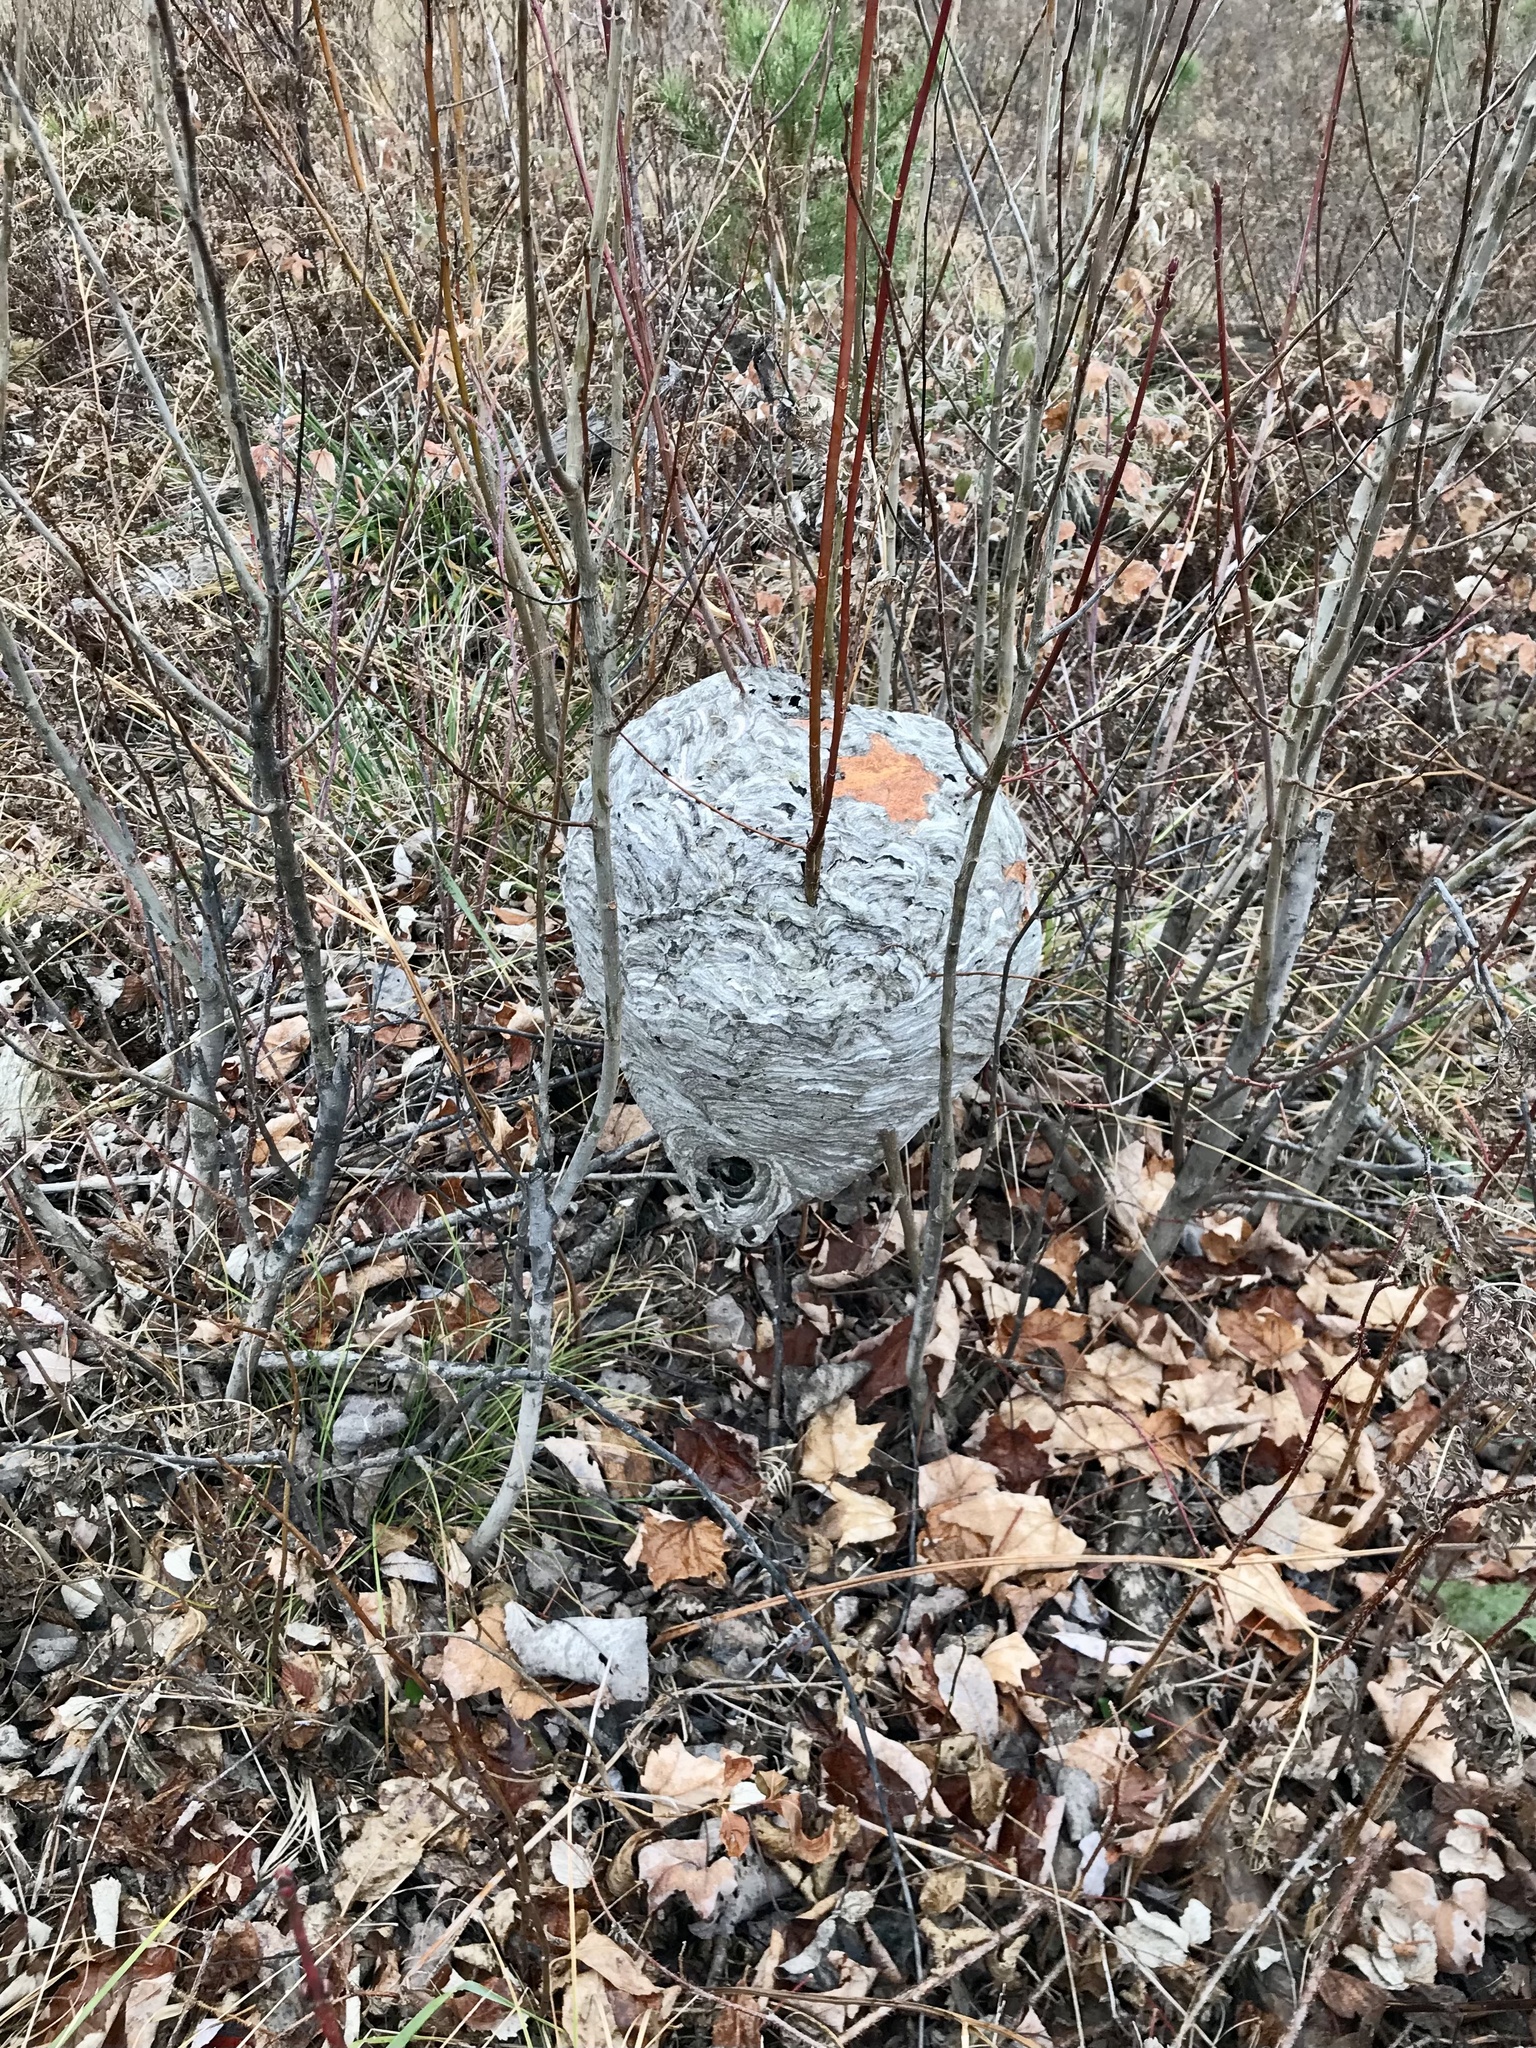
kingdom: Animalia
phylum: Arthropoda
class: Insecta
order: Hymenoptera
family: Vespidae
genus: Dolichovespula
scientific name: Dolichovespula maculata
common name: Bald-faced hornet
